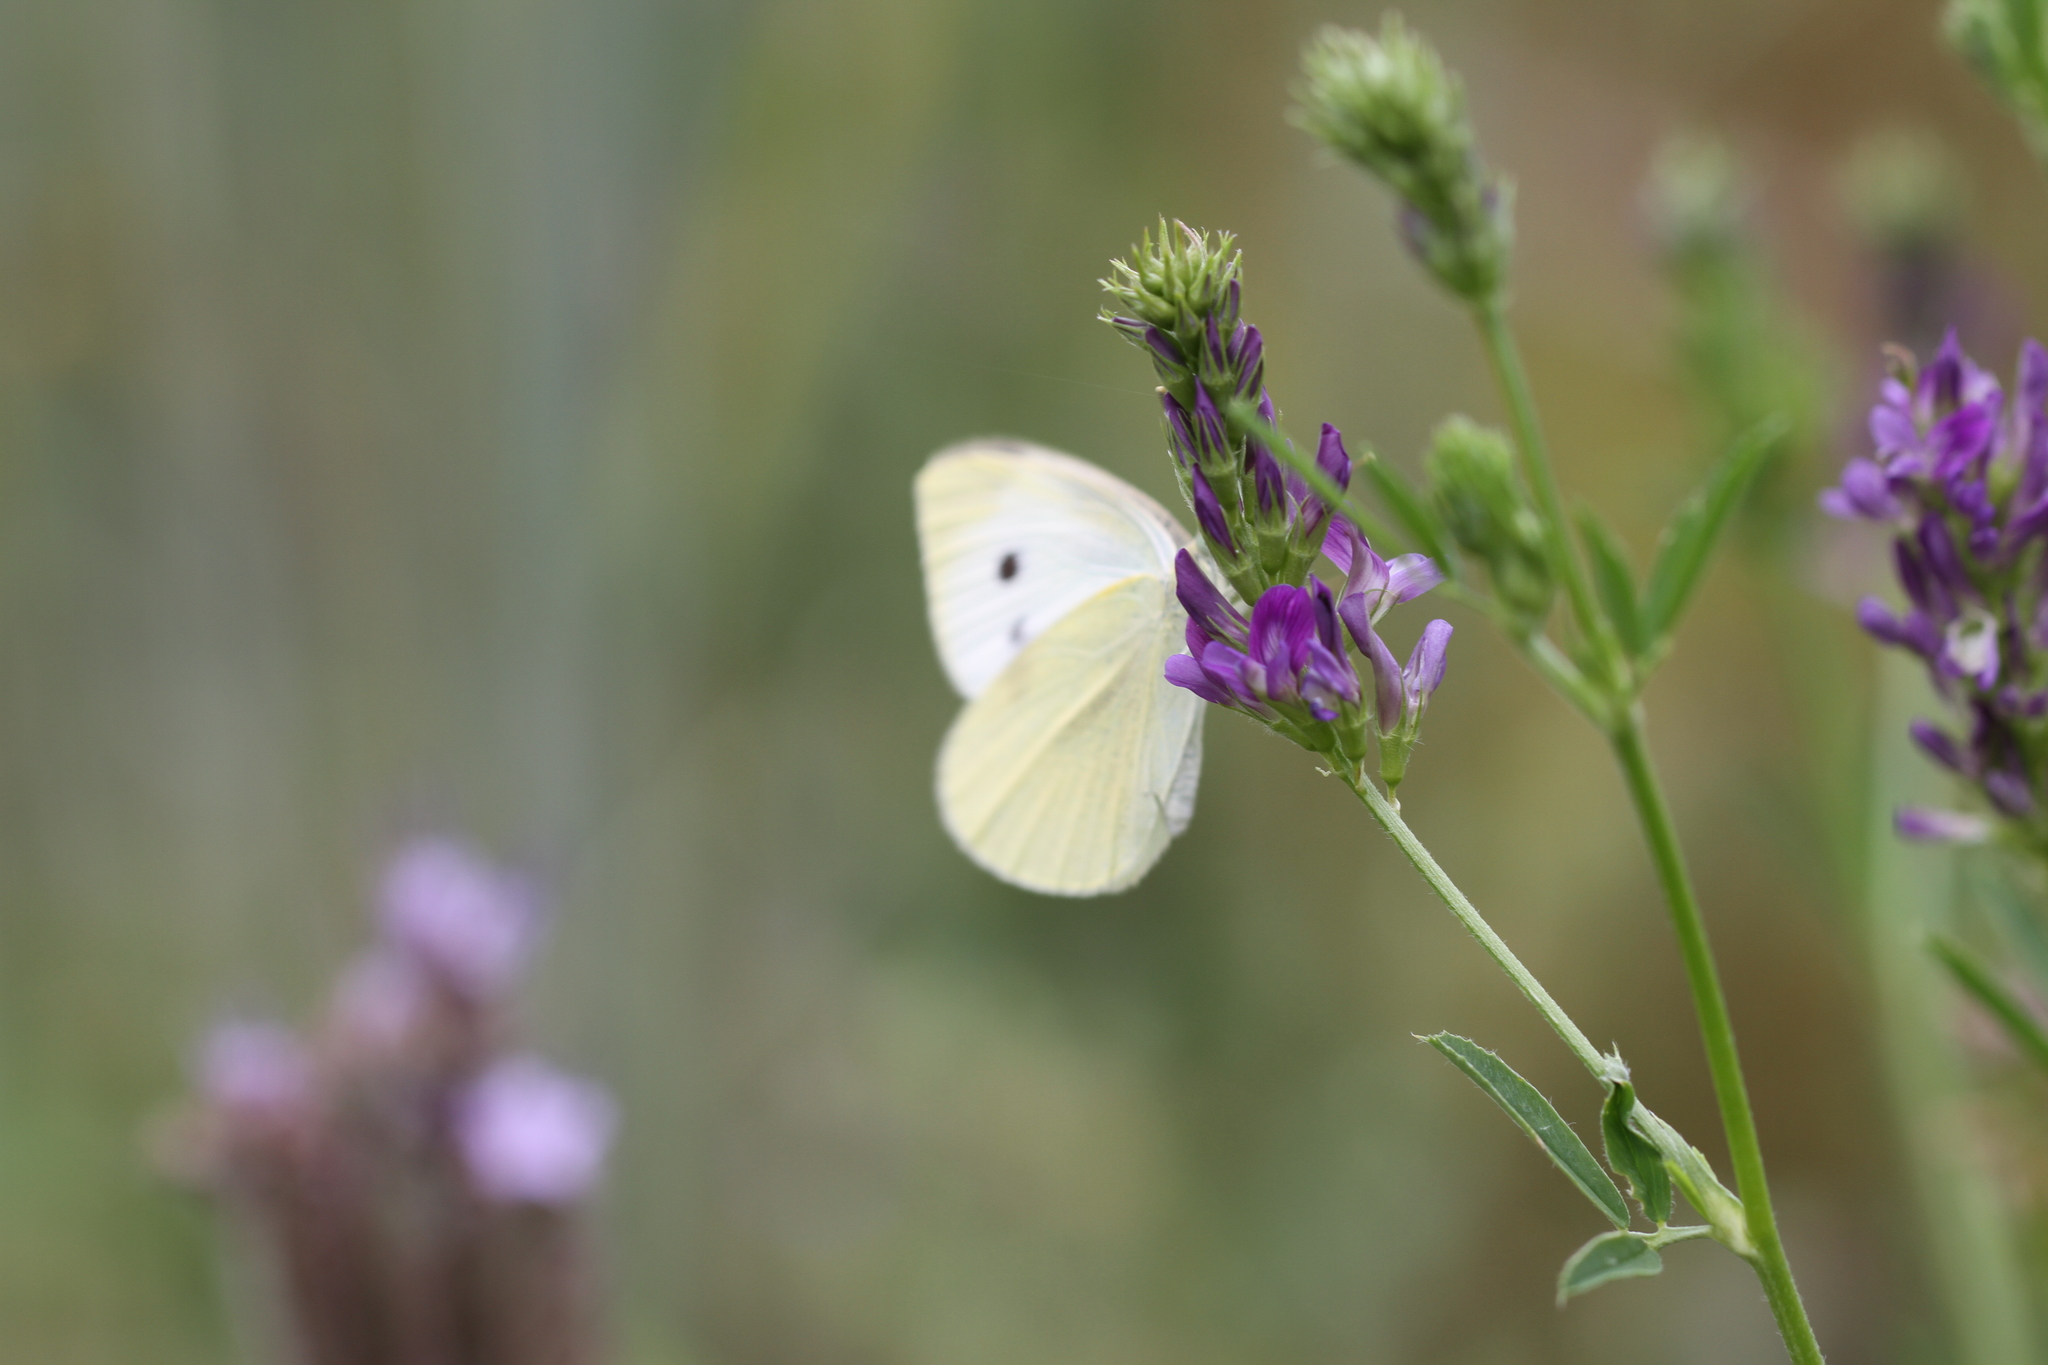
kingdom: Animalia
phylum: Arthropoda
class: Insecta
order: Lepidoptera
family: Pieridae
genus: Pieris
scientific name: Pieris rapae
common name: Small white
